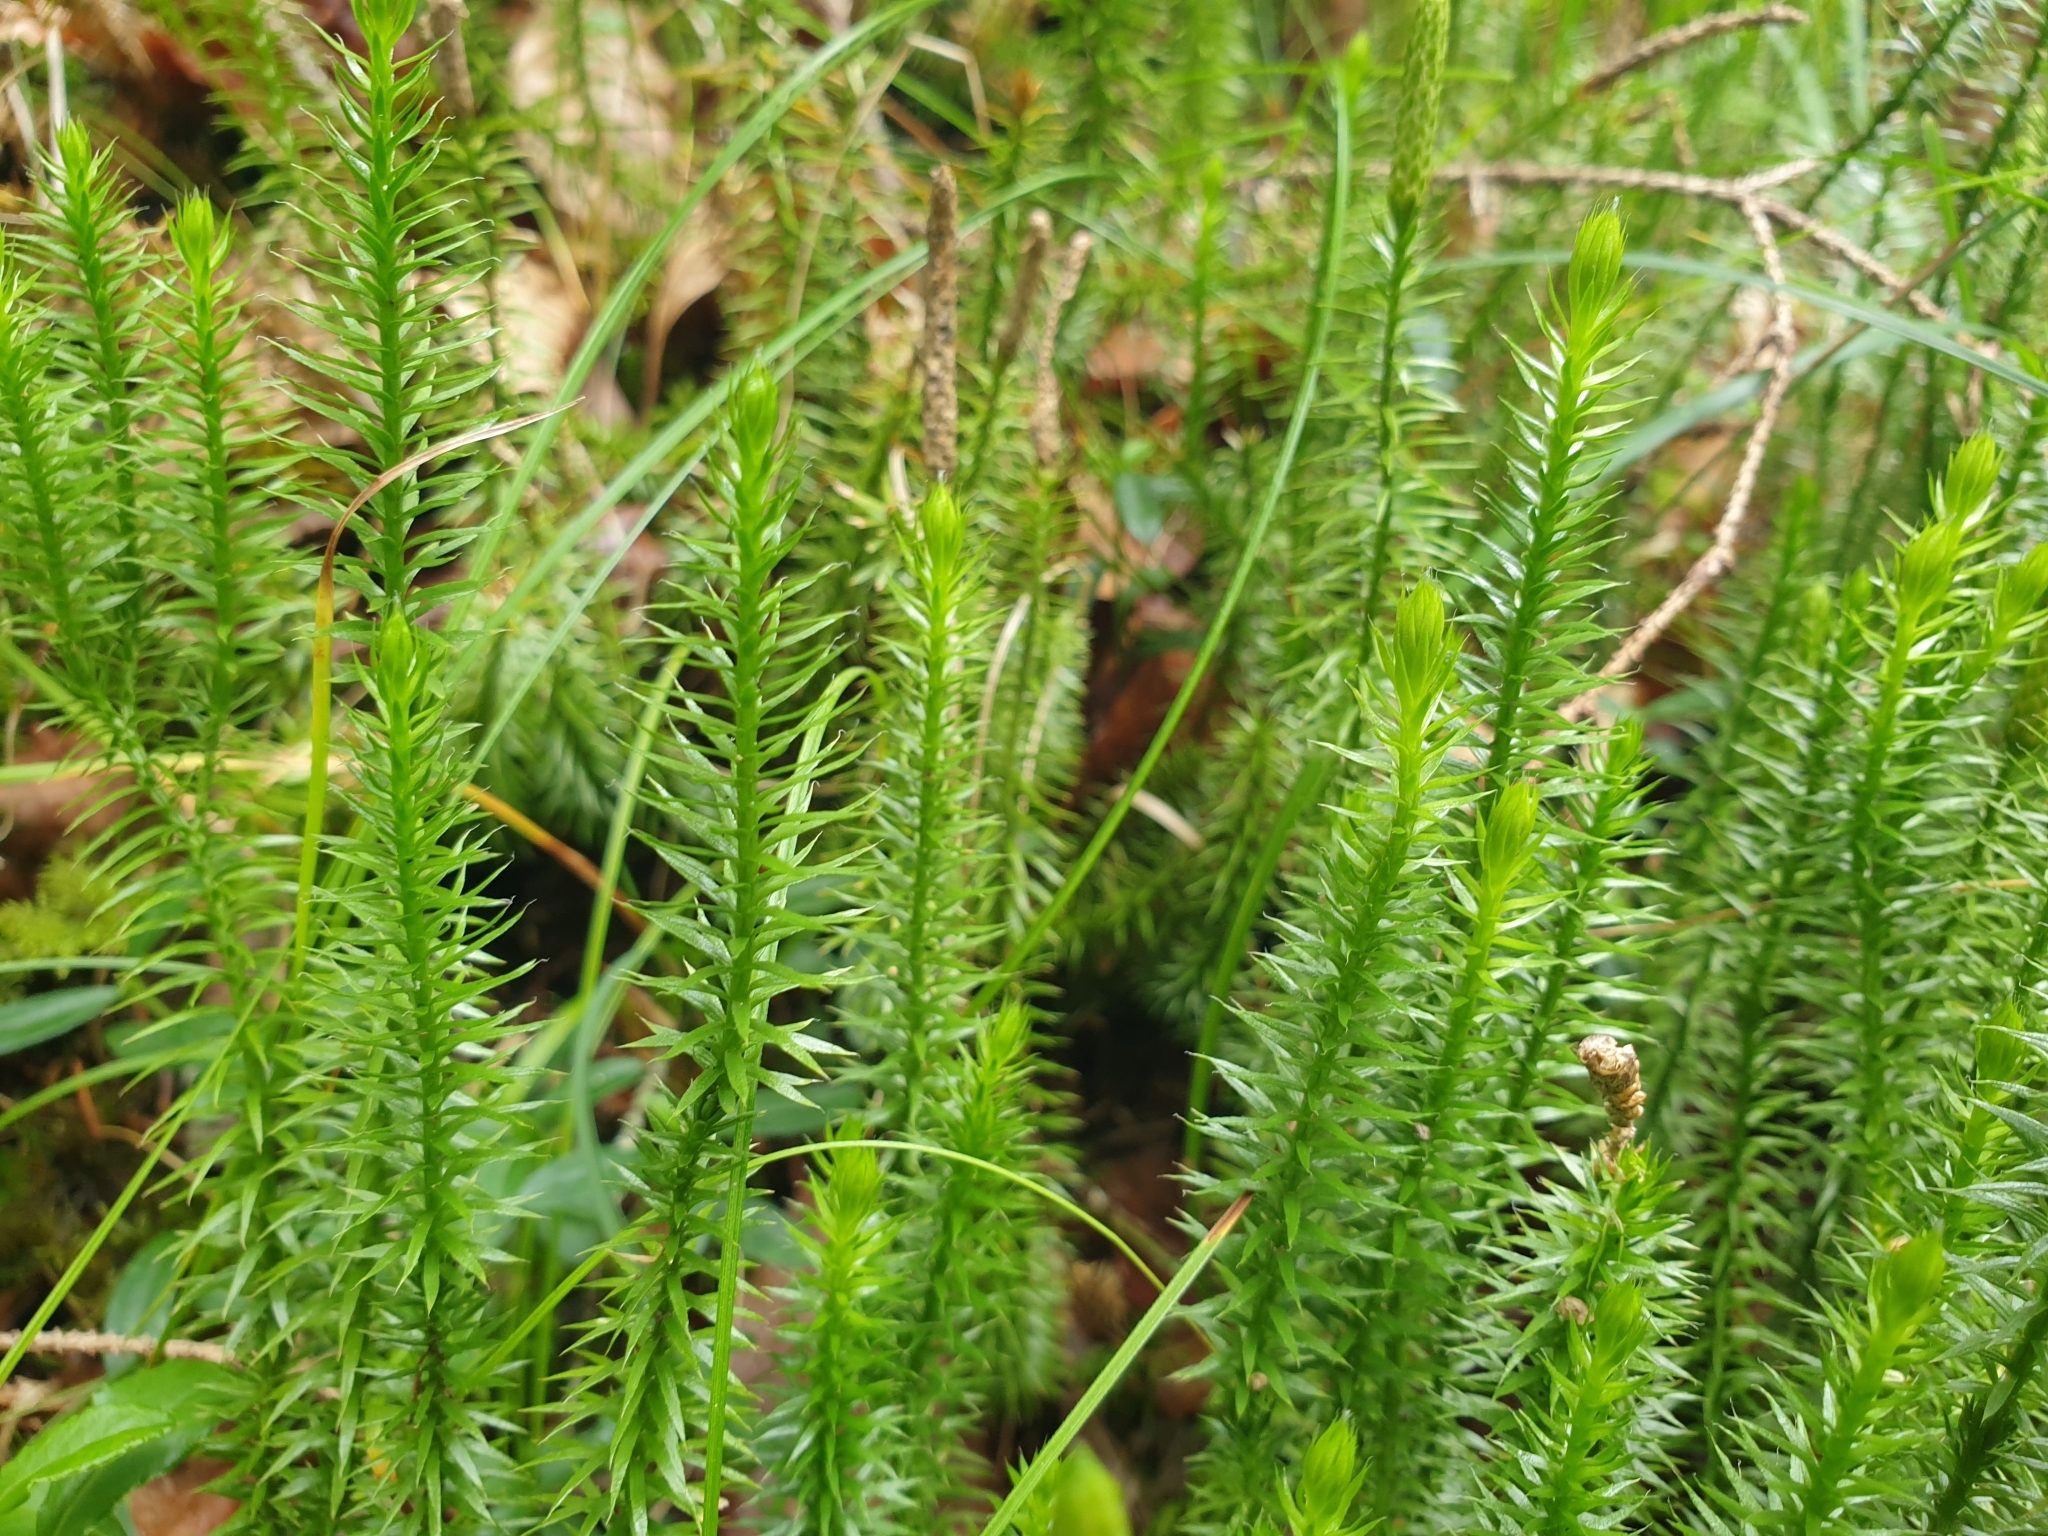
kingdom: Plantae
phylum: Tracheophyta
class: Lycopodiopsida
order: Lycopodiales
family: Lycopodiaceae
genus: Spinulum
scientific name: Spinulum annotinum
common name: Interrupted club-moss
